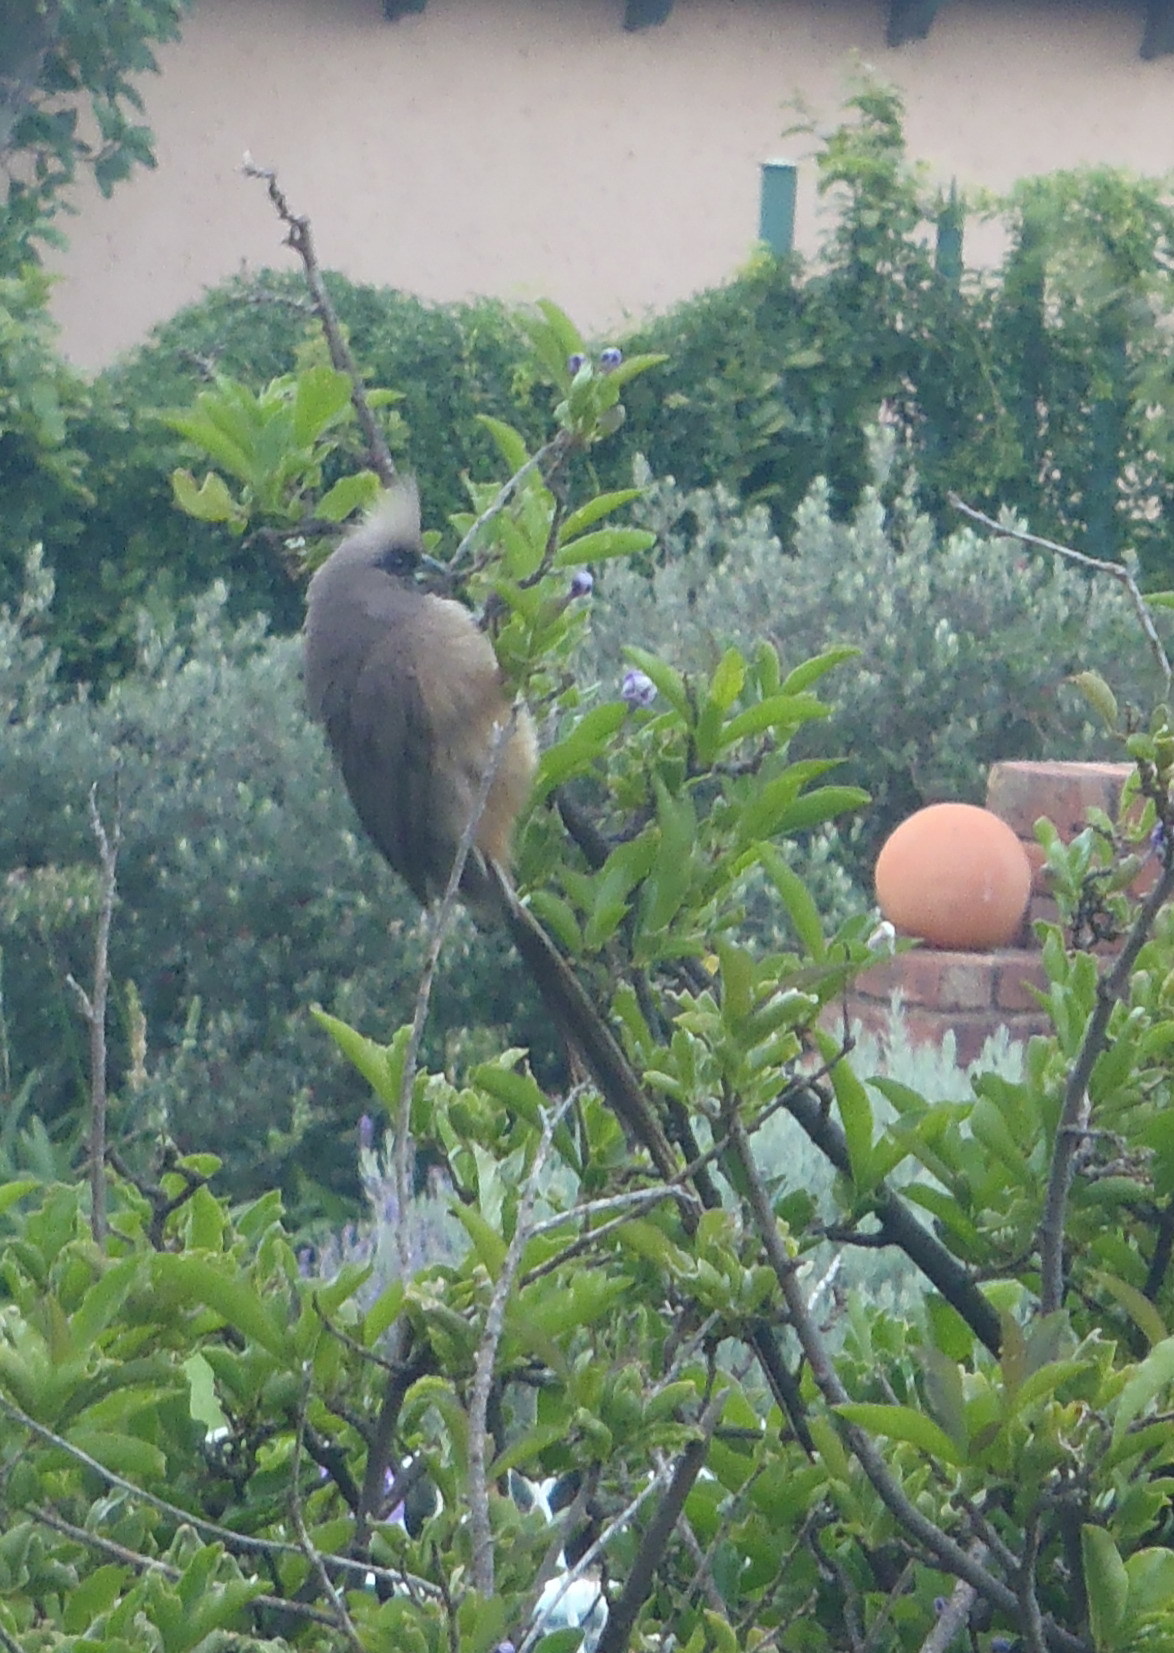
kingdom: Animalia
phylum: Chordata
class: Aves
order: Coliiformes
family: Coliidae
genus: Colius
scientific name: Colius striatus
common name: Speckled mousebird
